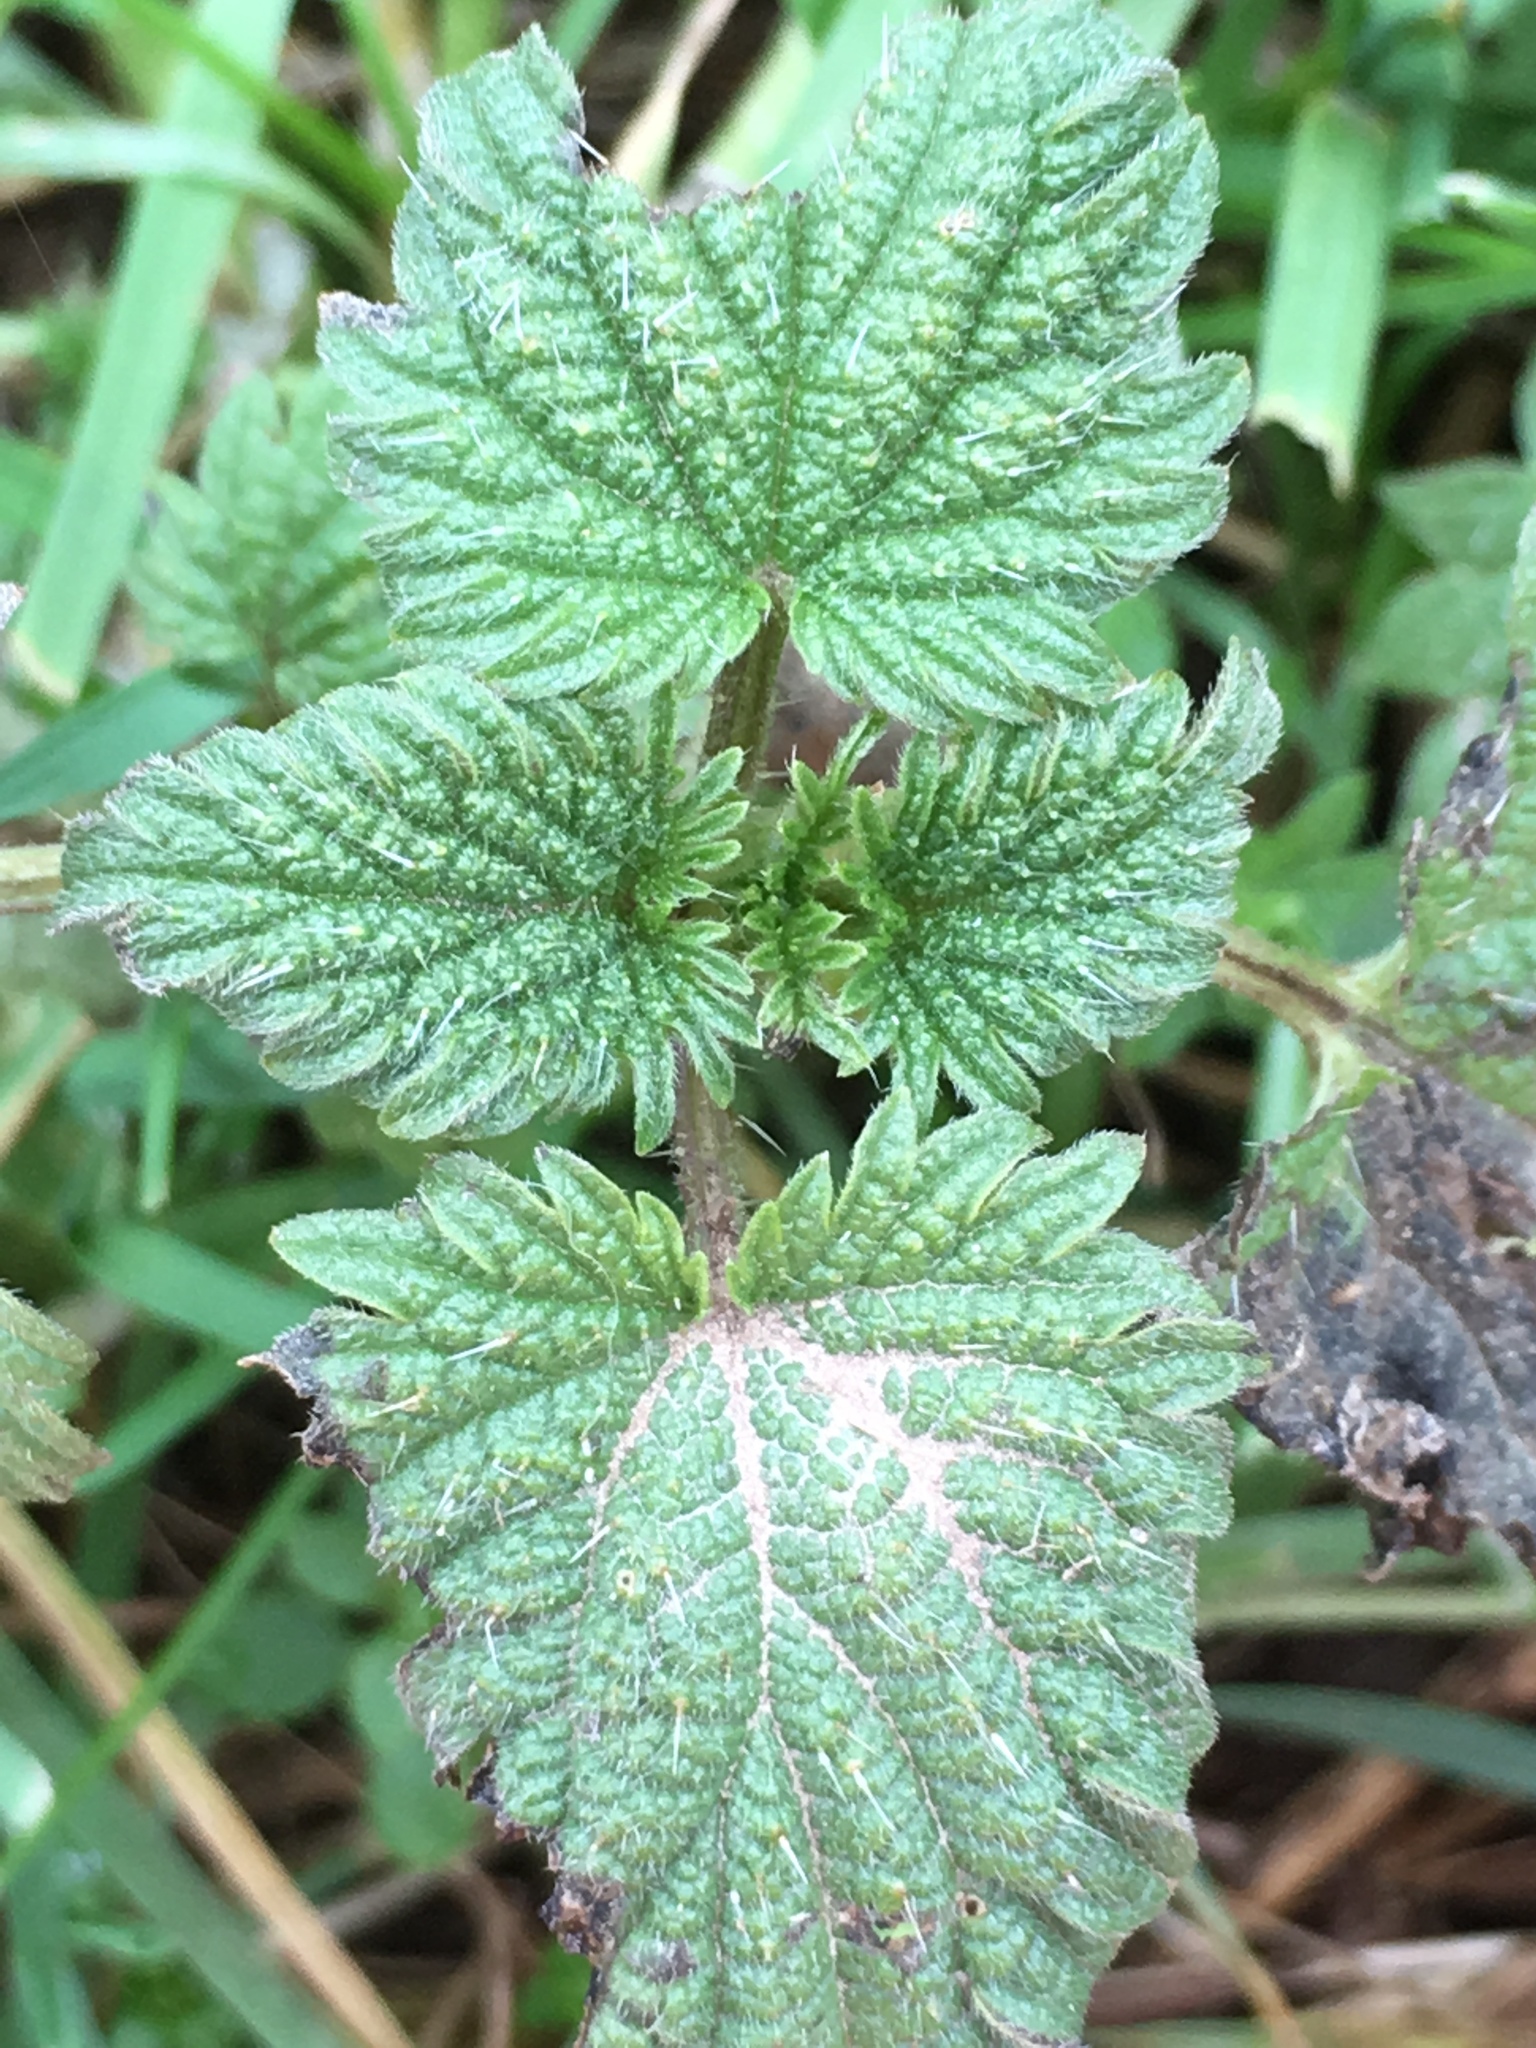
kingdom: Plantae
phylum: Tracheophyta
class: Magnoliopsida
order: Rosales
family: Urticaceae
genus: Urtica
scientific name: Urtica dioica
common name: Common nettle
